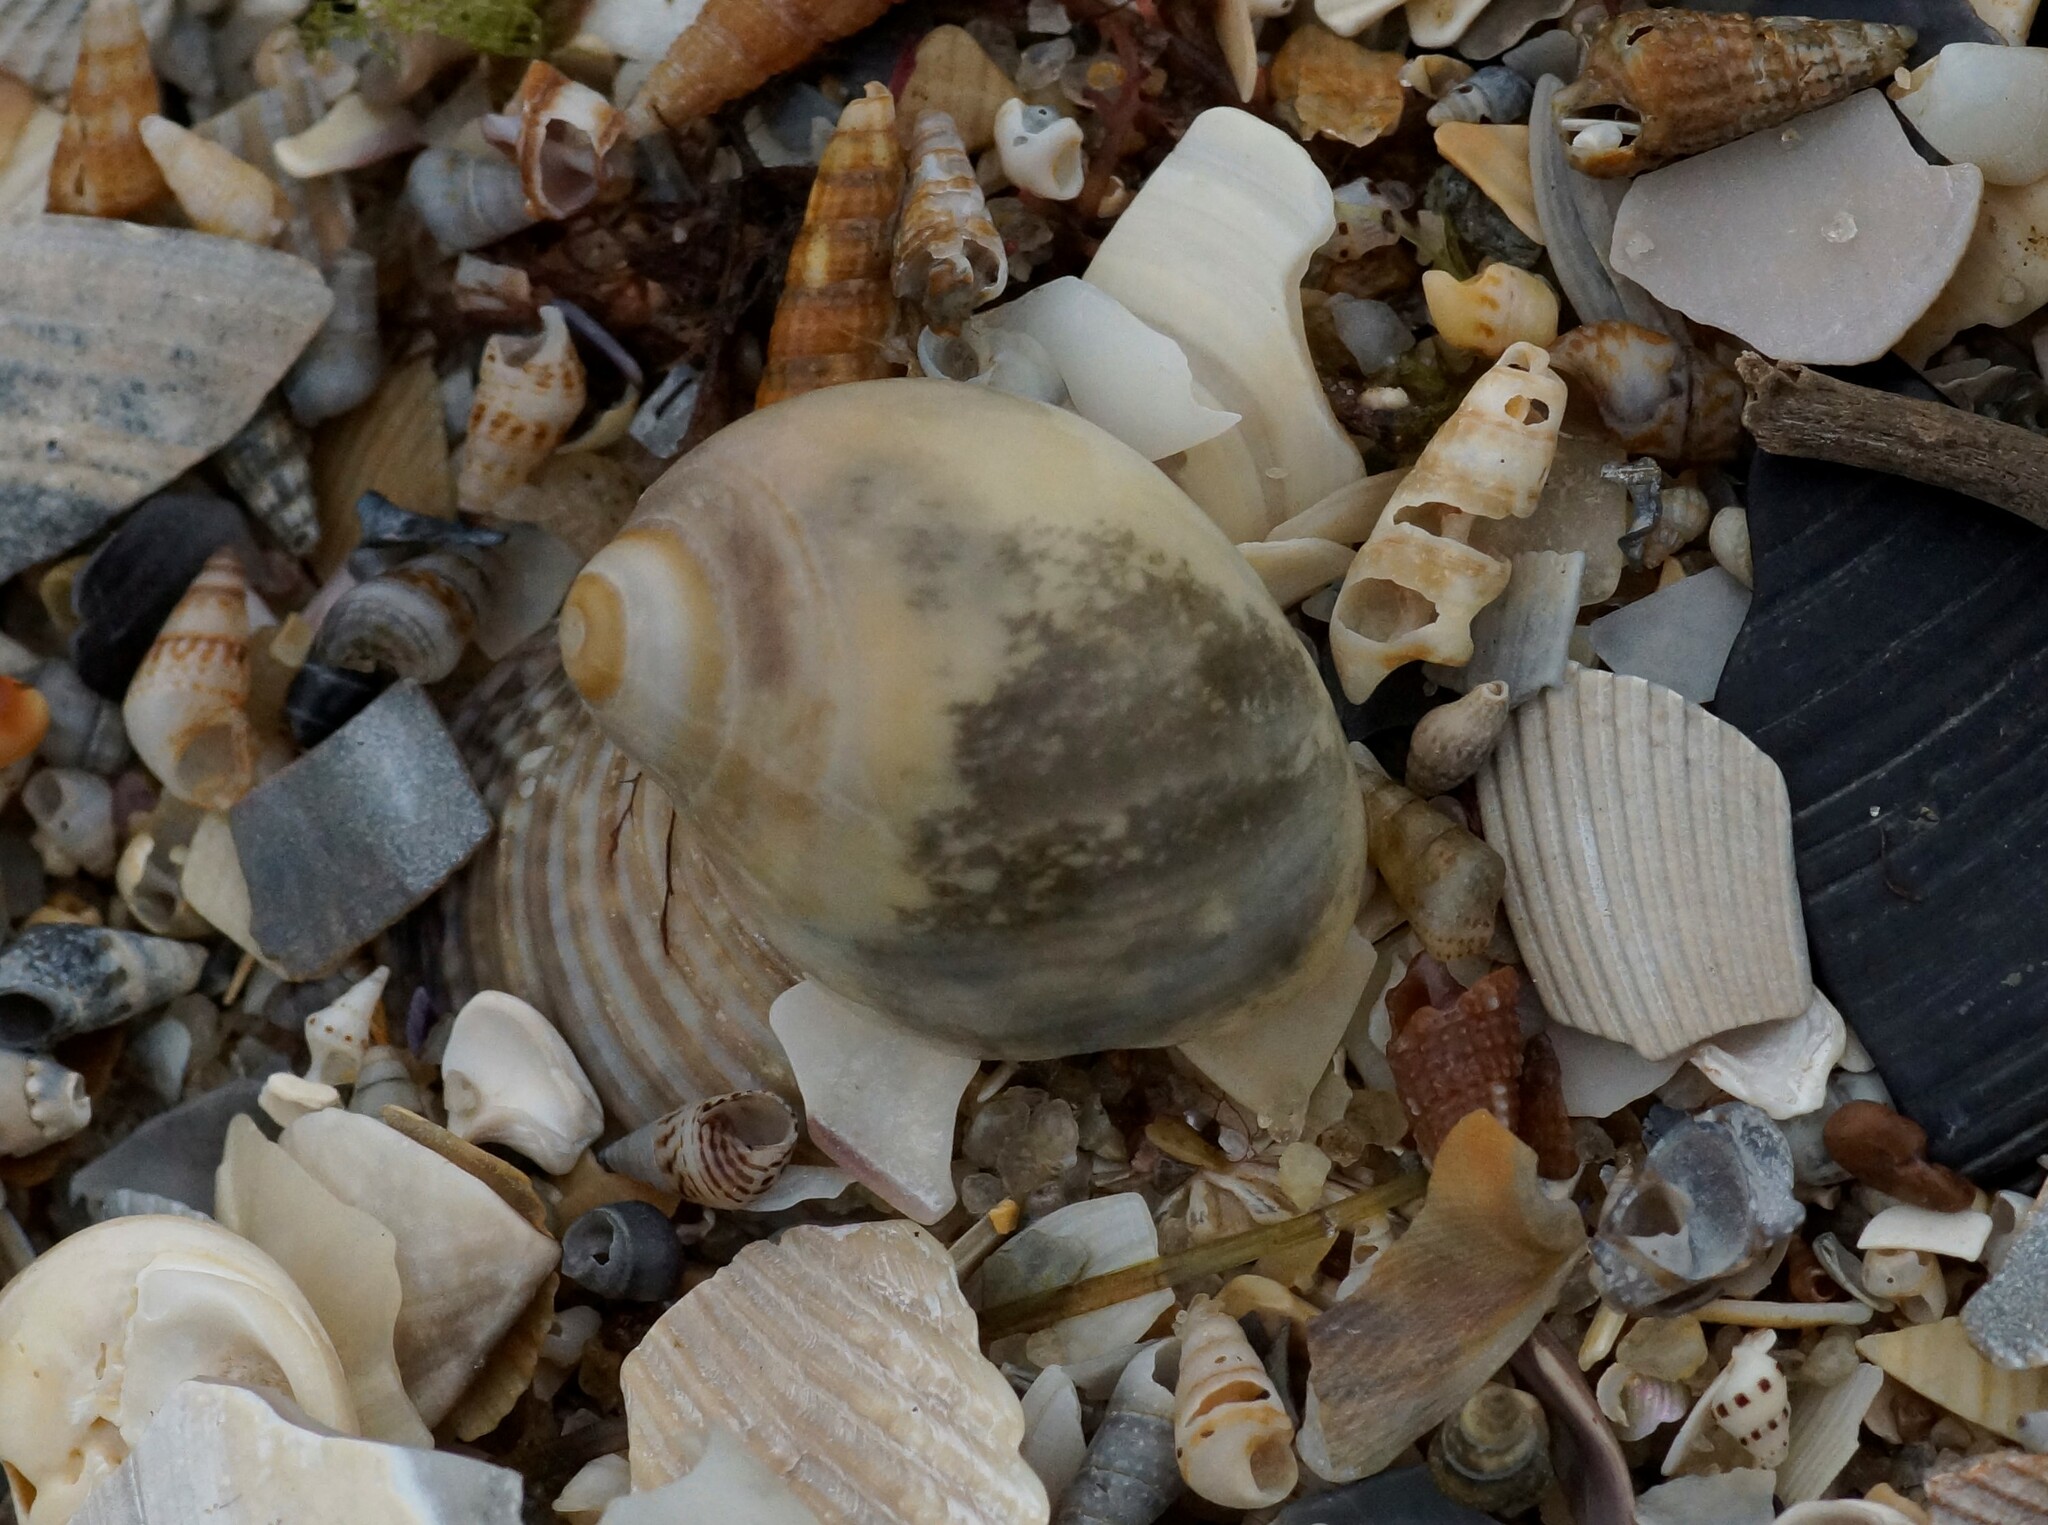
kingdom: Animalia
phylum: Mollusca
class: Gastropoda
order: Littorinimorpha
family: Naticidae
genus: Conuber
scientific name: Conuber conicum
